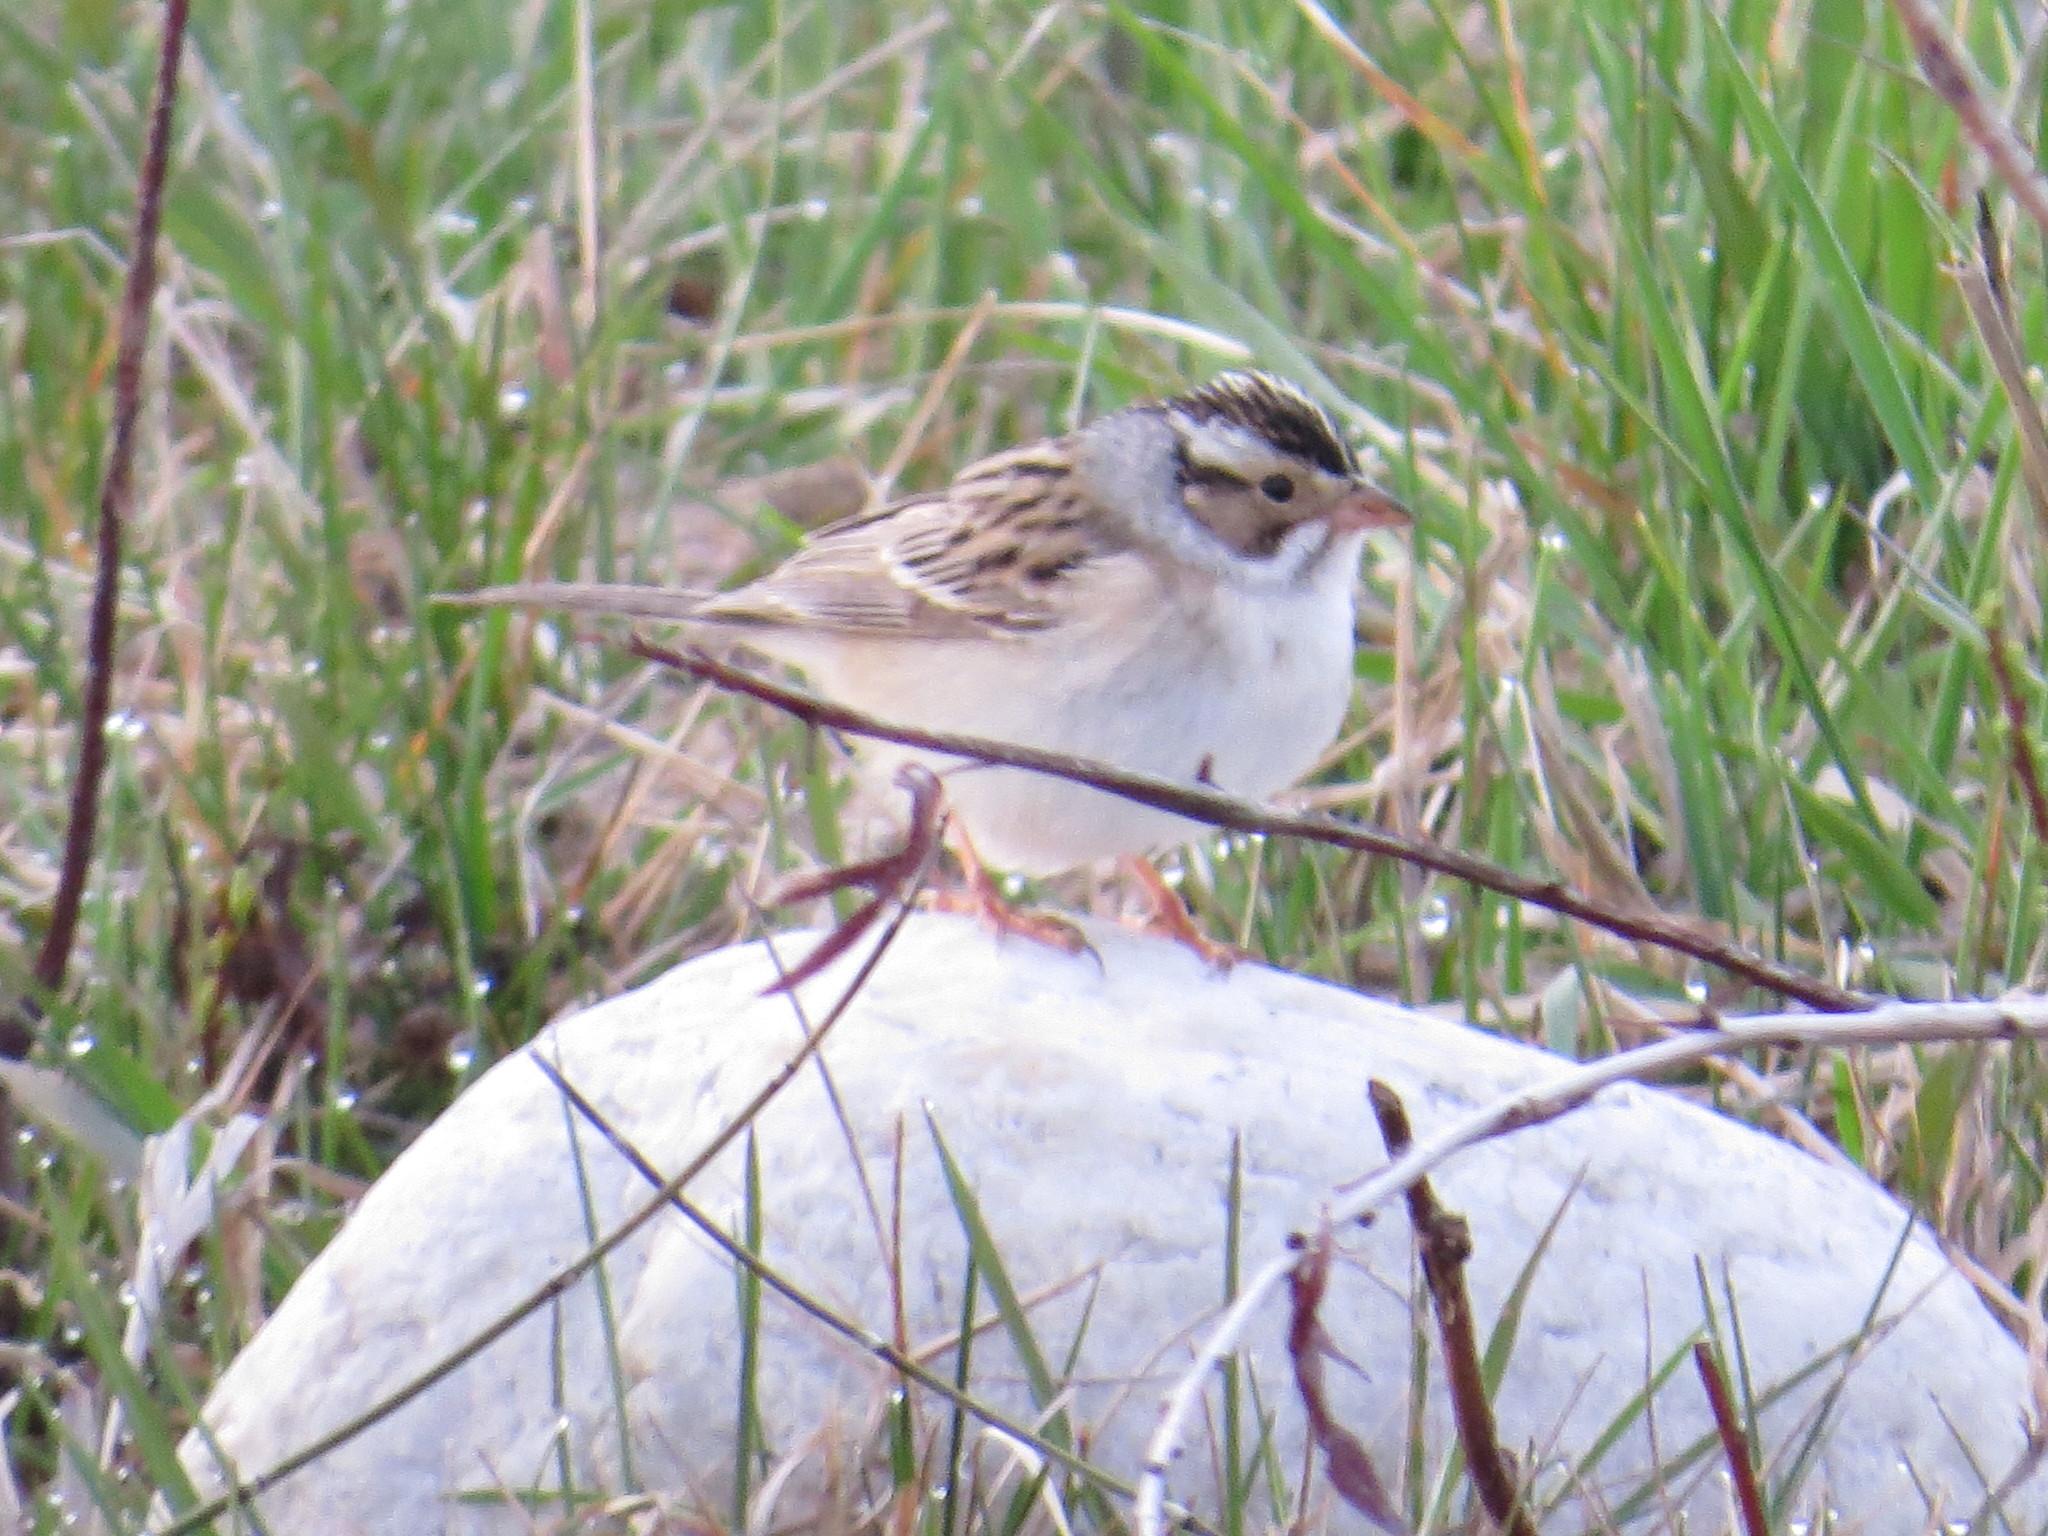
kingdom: Animalia
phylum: Chordata
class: Aves
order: Passeriformes
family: Passerellidae
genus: Spizella
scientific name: Spizella pallida
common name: Clay-colored sparrow
